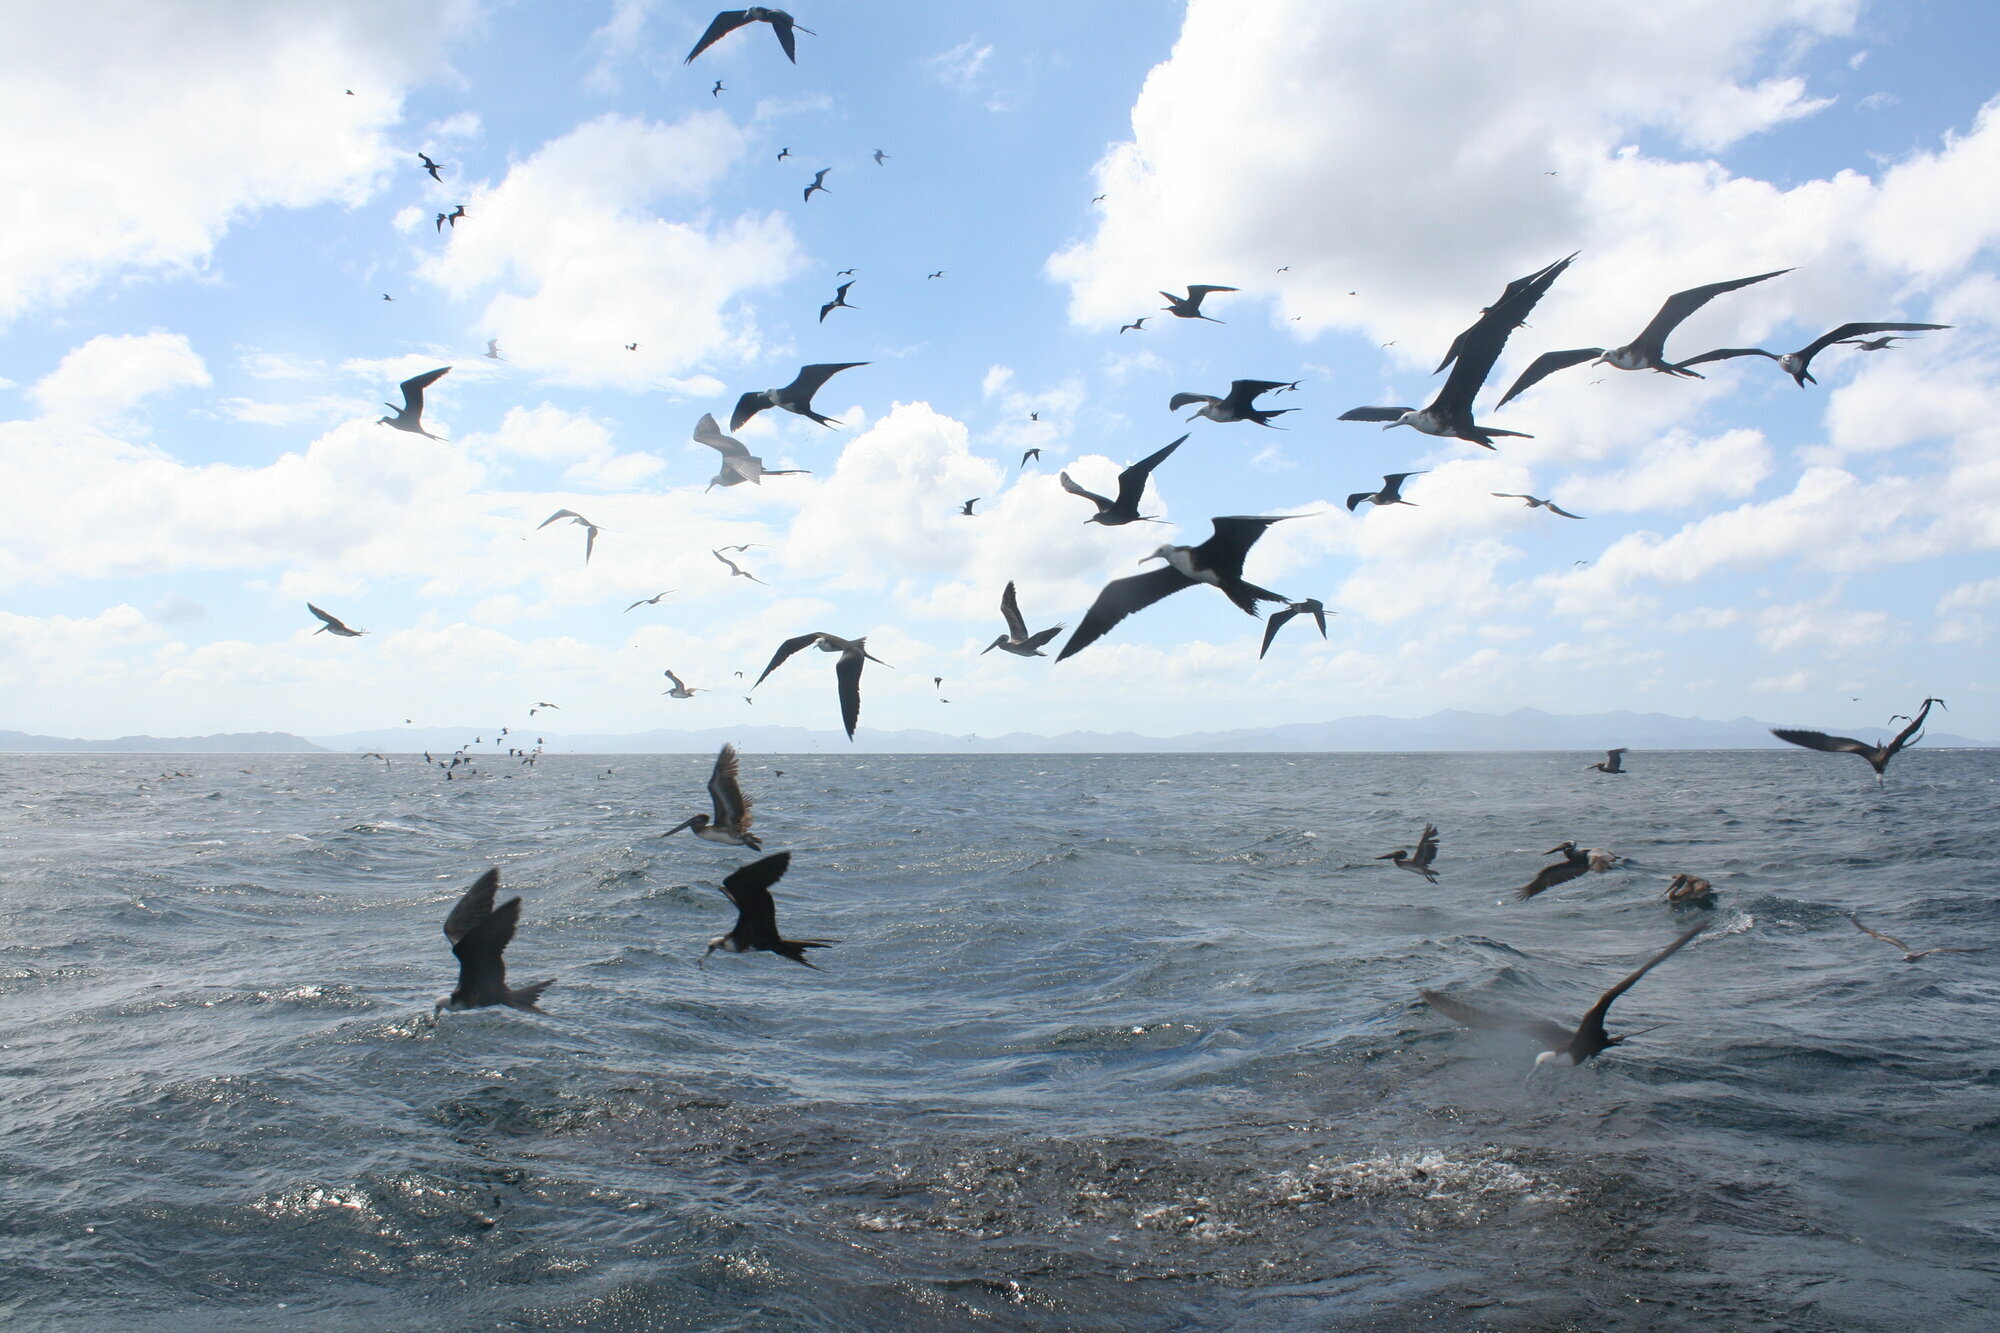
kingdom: Animalia
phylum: Chordata
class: Aves
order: Suliformes
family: Fregatidae
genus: Fregata
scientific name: Fregata magnificens
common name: Magnificent frigatebird
